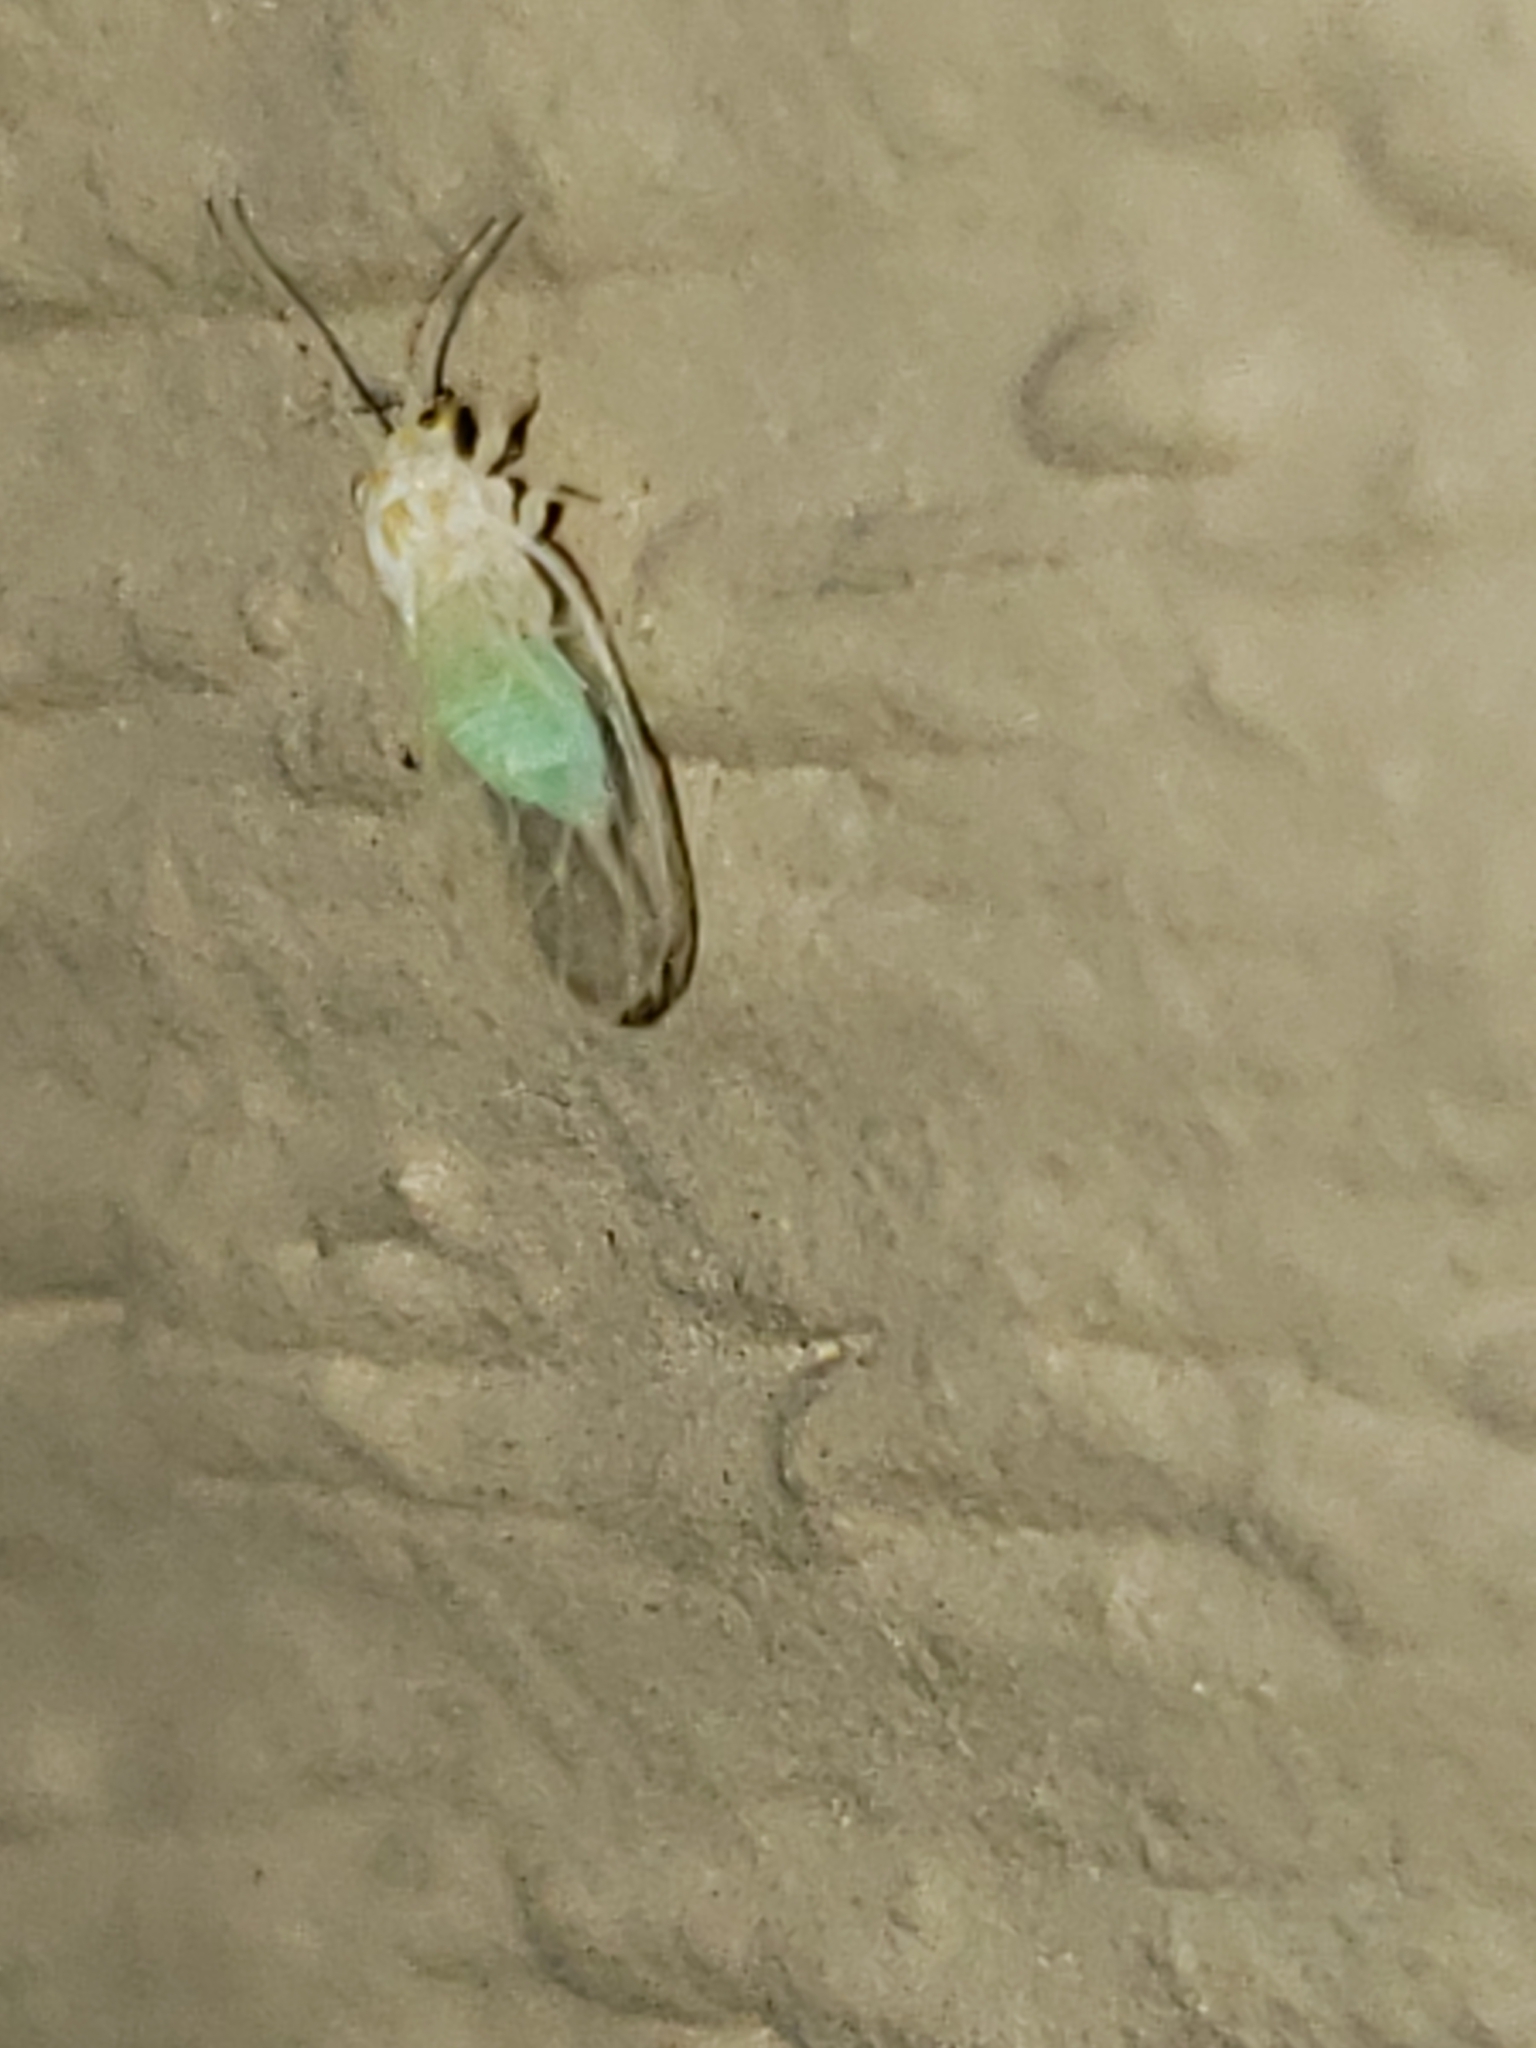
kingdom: Animalia
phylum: Arthropoda
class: Insecta
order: Hemiptera
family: Psyllidae
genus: Cacopsylla
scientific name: Cacopsylla annulata
